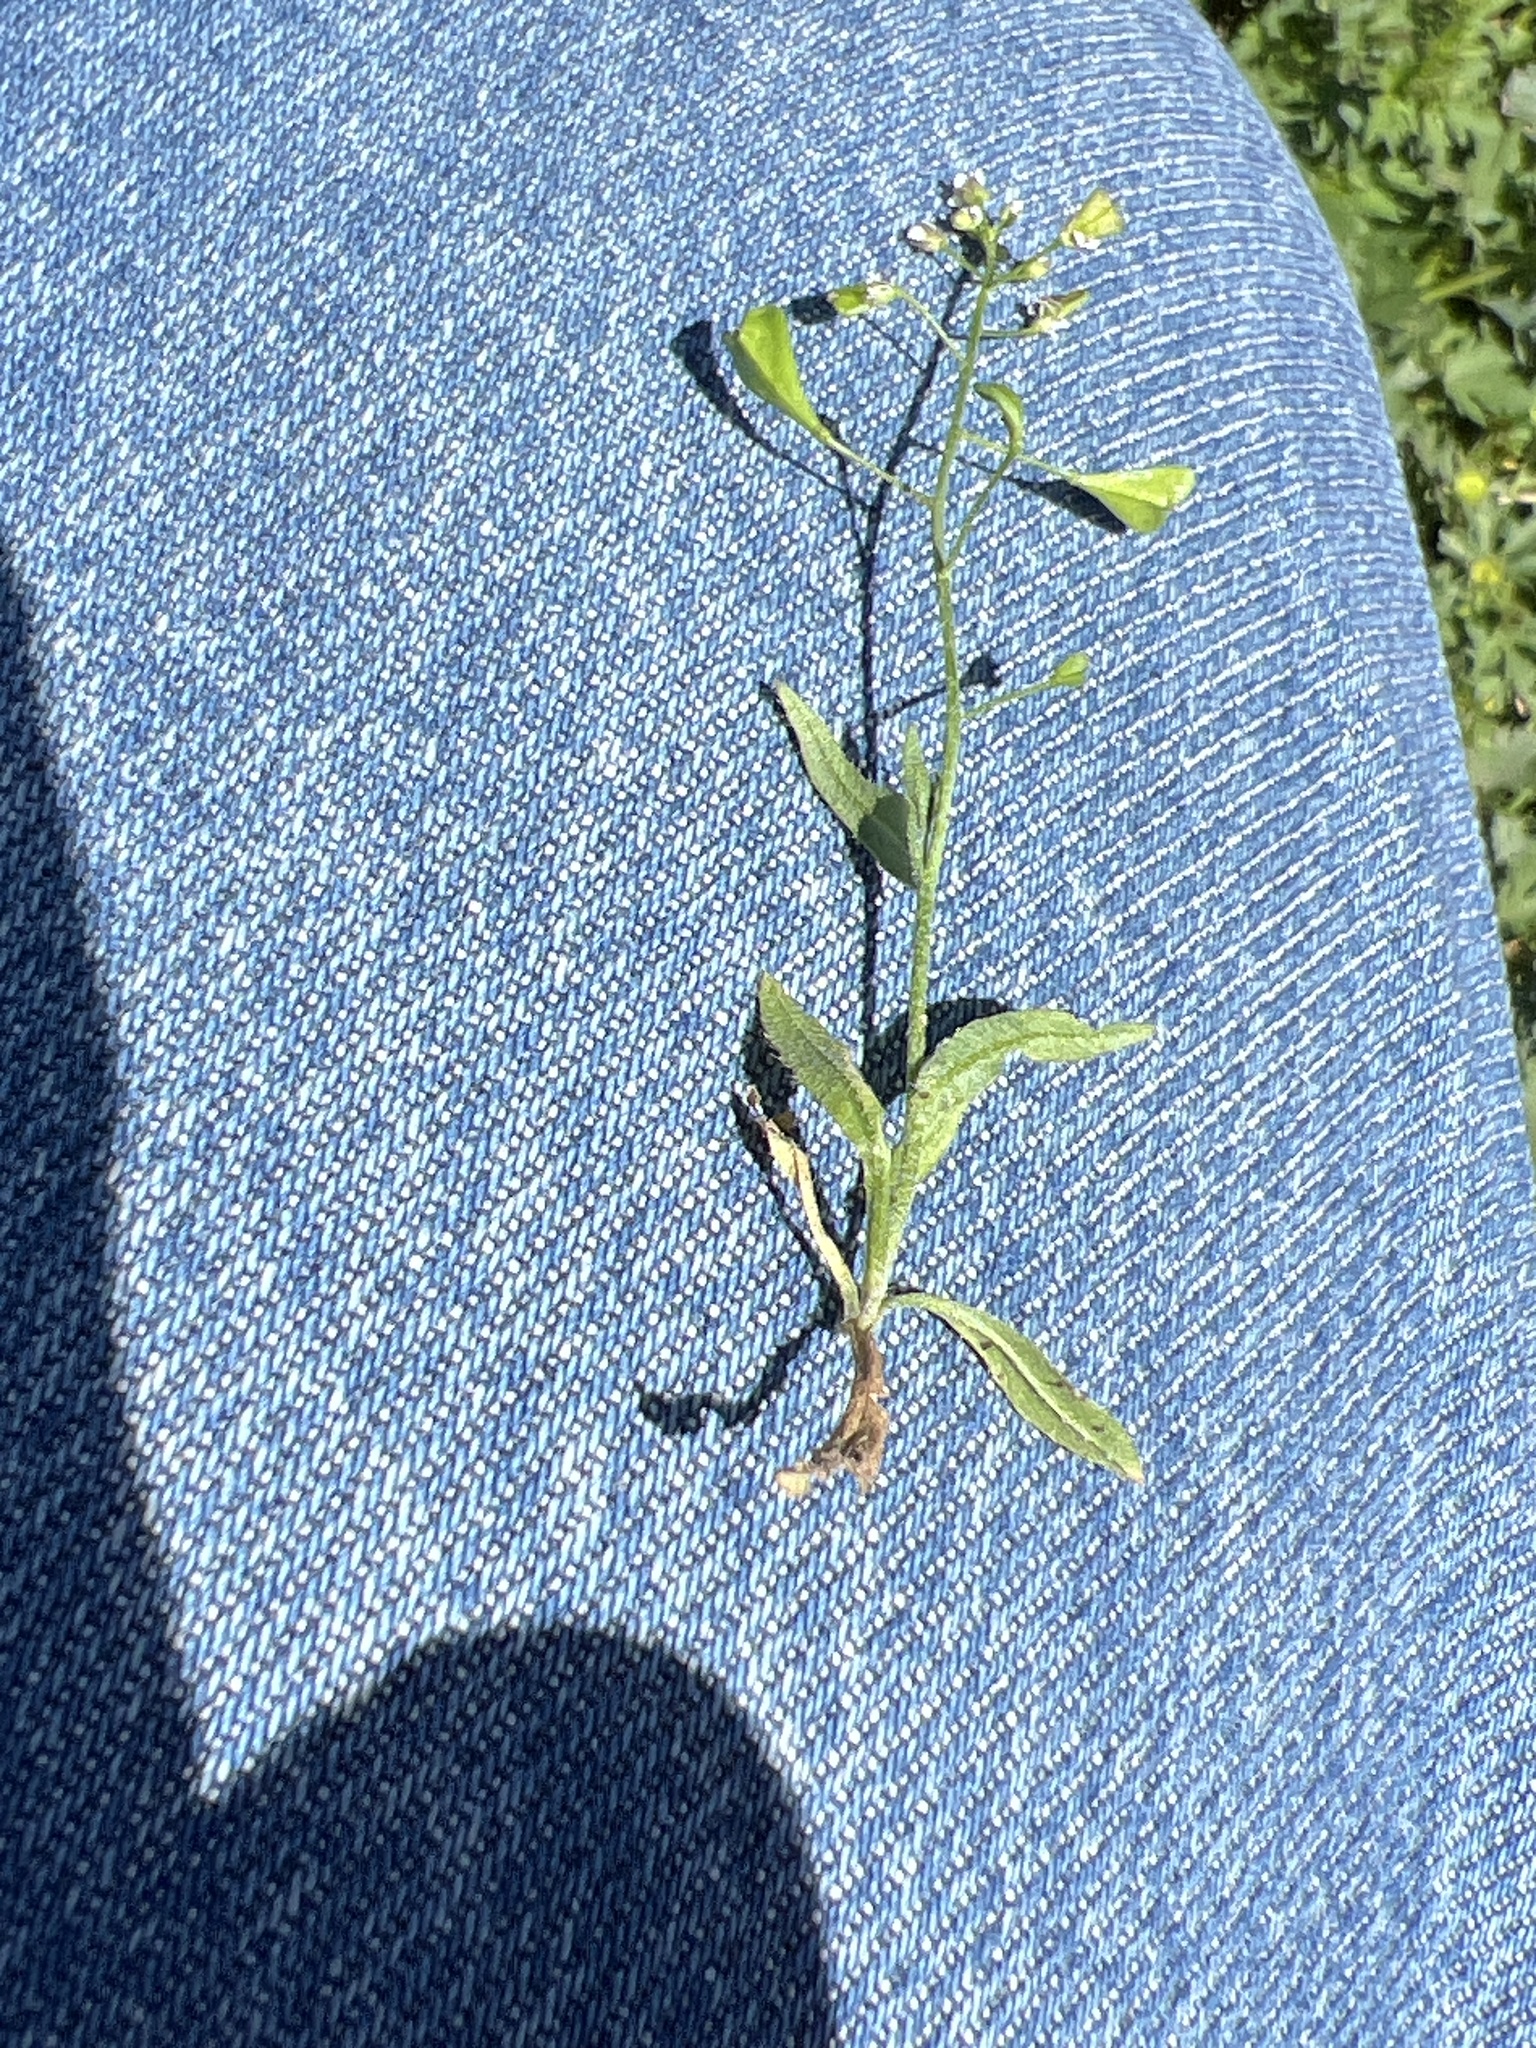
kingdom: Plantae
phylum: Tracheophyta
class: Magnoliopsida
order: Brassicales
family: Brassicaceae
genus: Capsella
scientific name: Capsella bursa-pastoris
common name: Shepherd's purse
